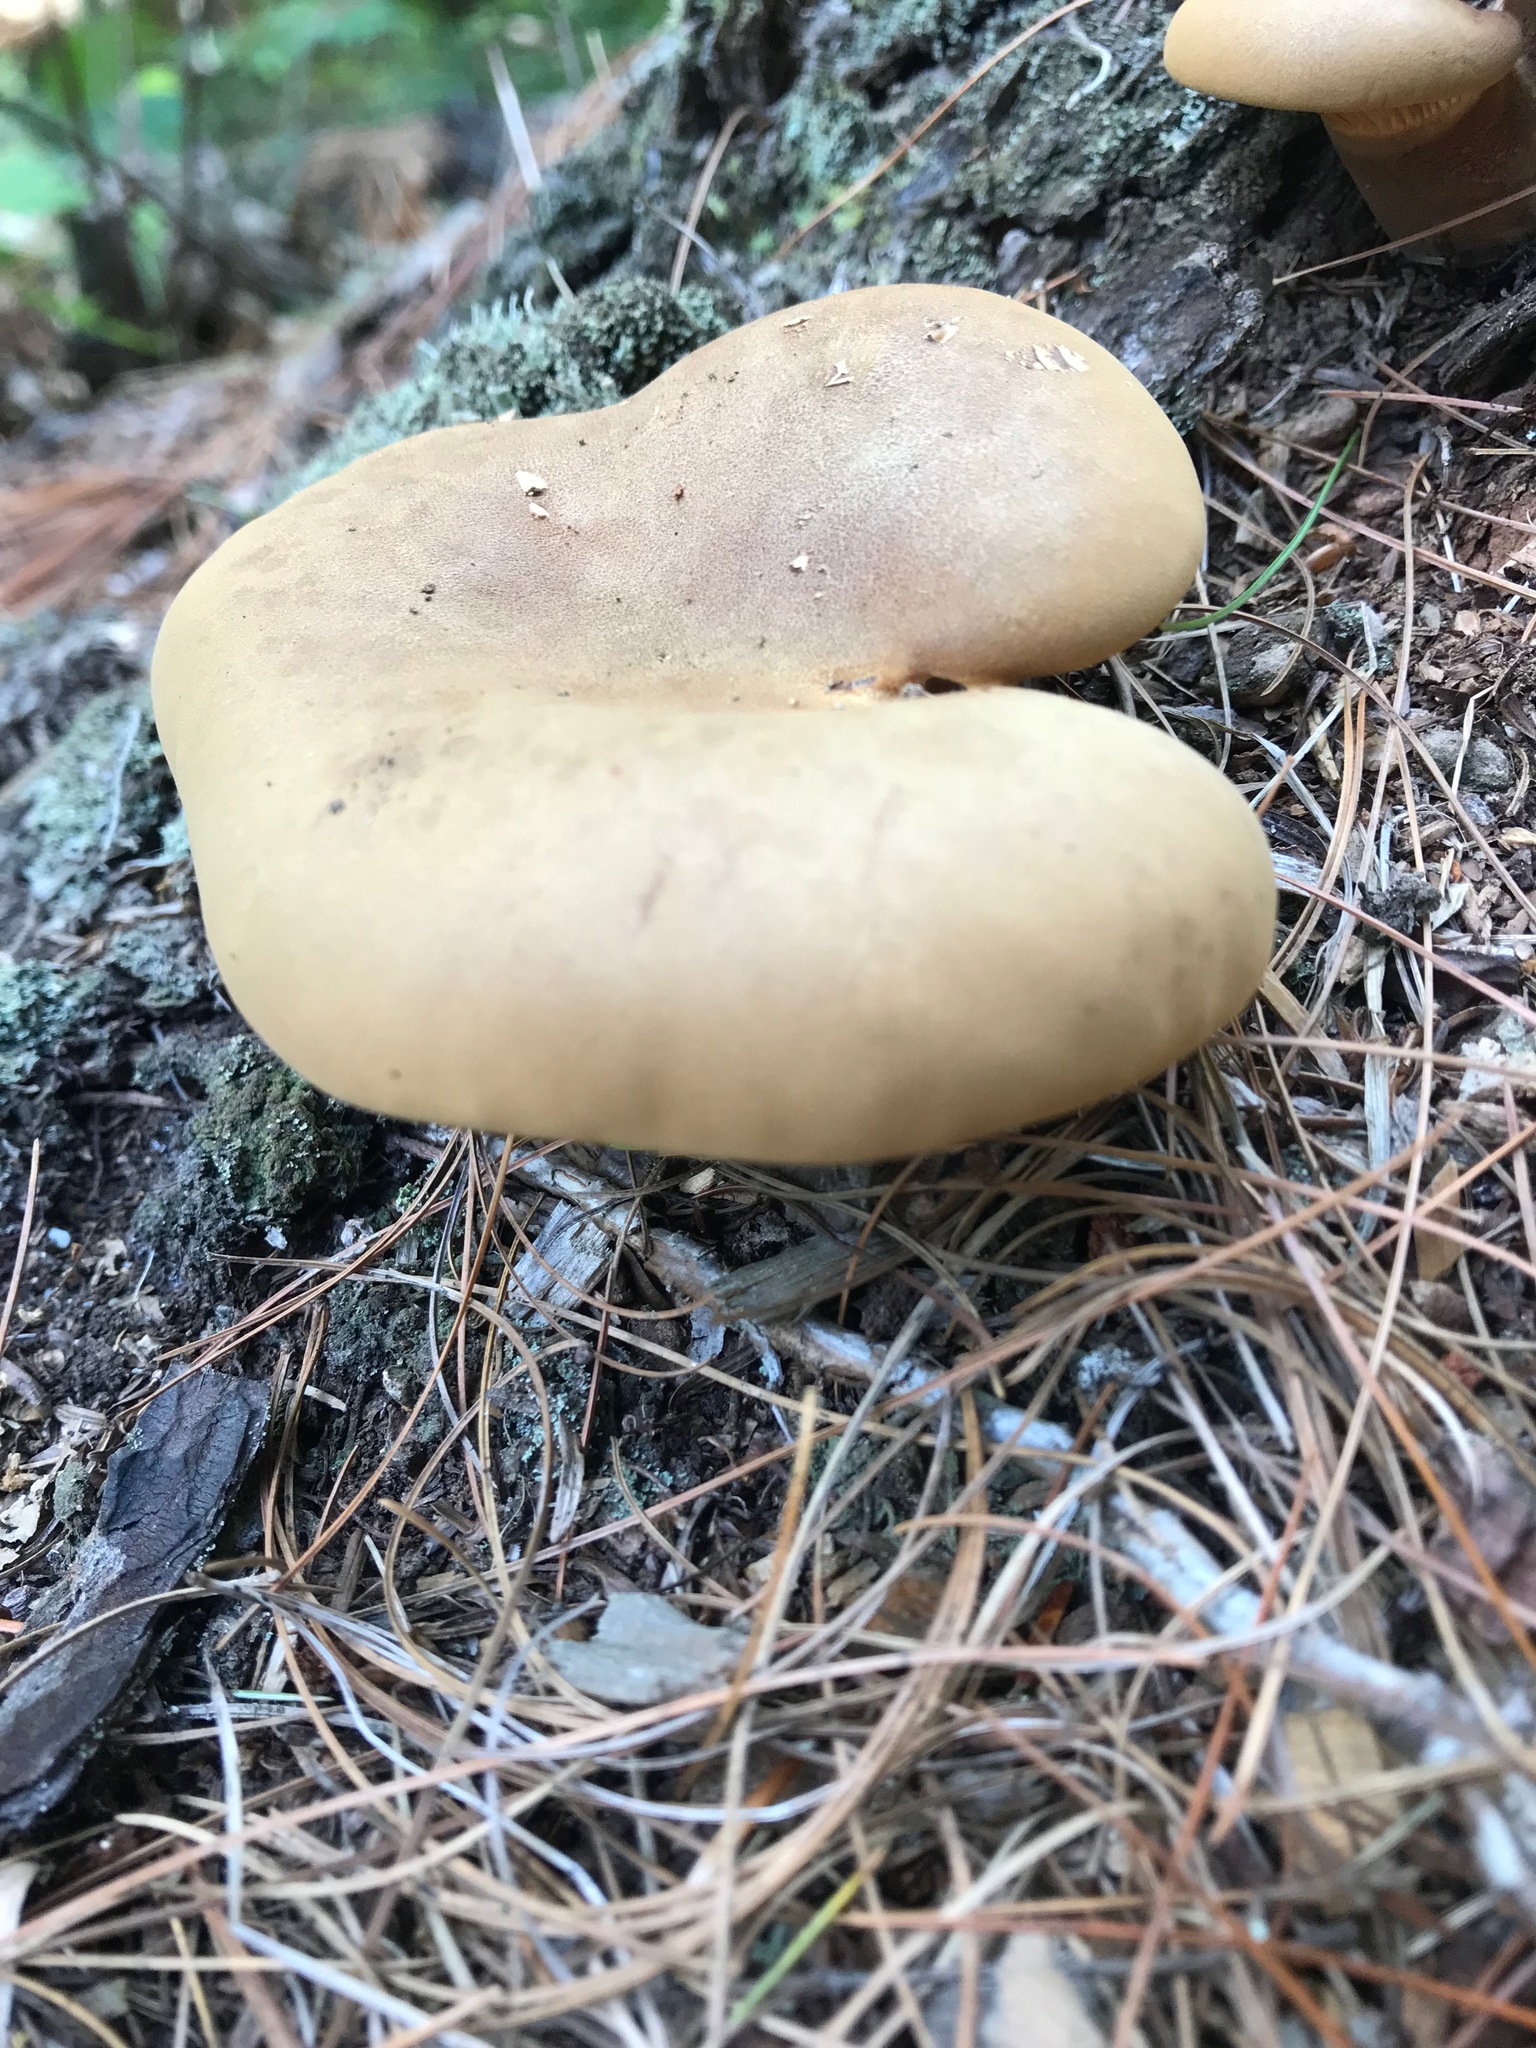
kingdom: Fungi
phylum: Basidiomycota
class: Agaricomycetes
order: Boletales
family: Tapinellaceae
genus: Tapinella
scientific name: Tapinella atrotomentosa
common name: Velvet rollrim
